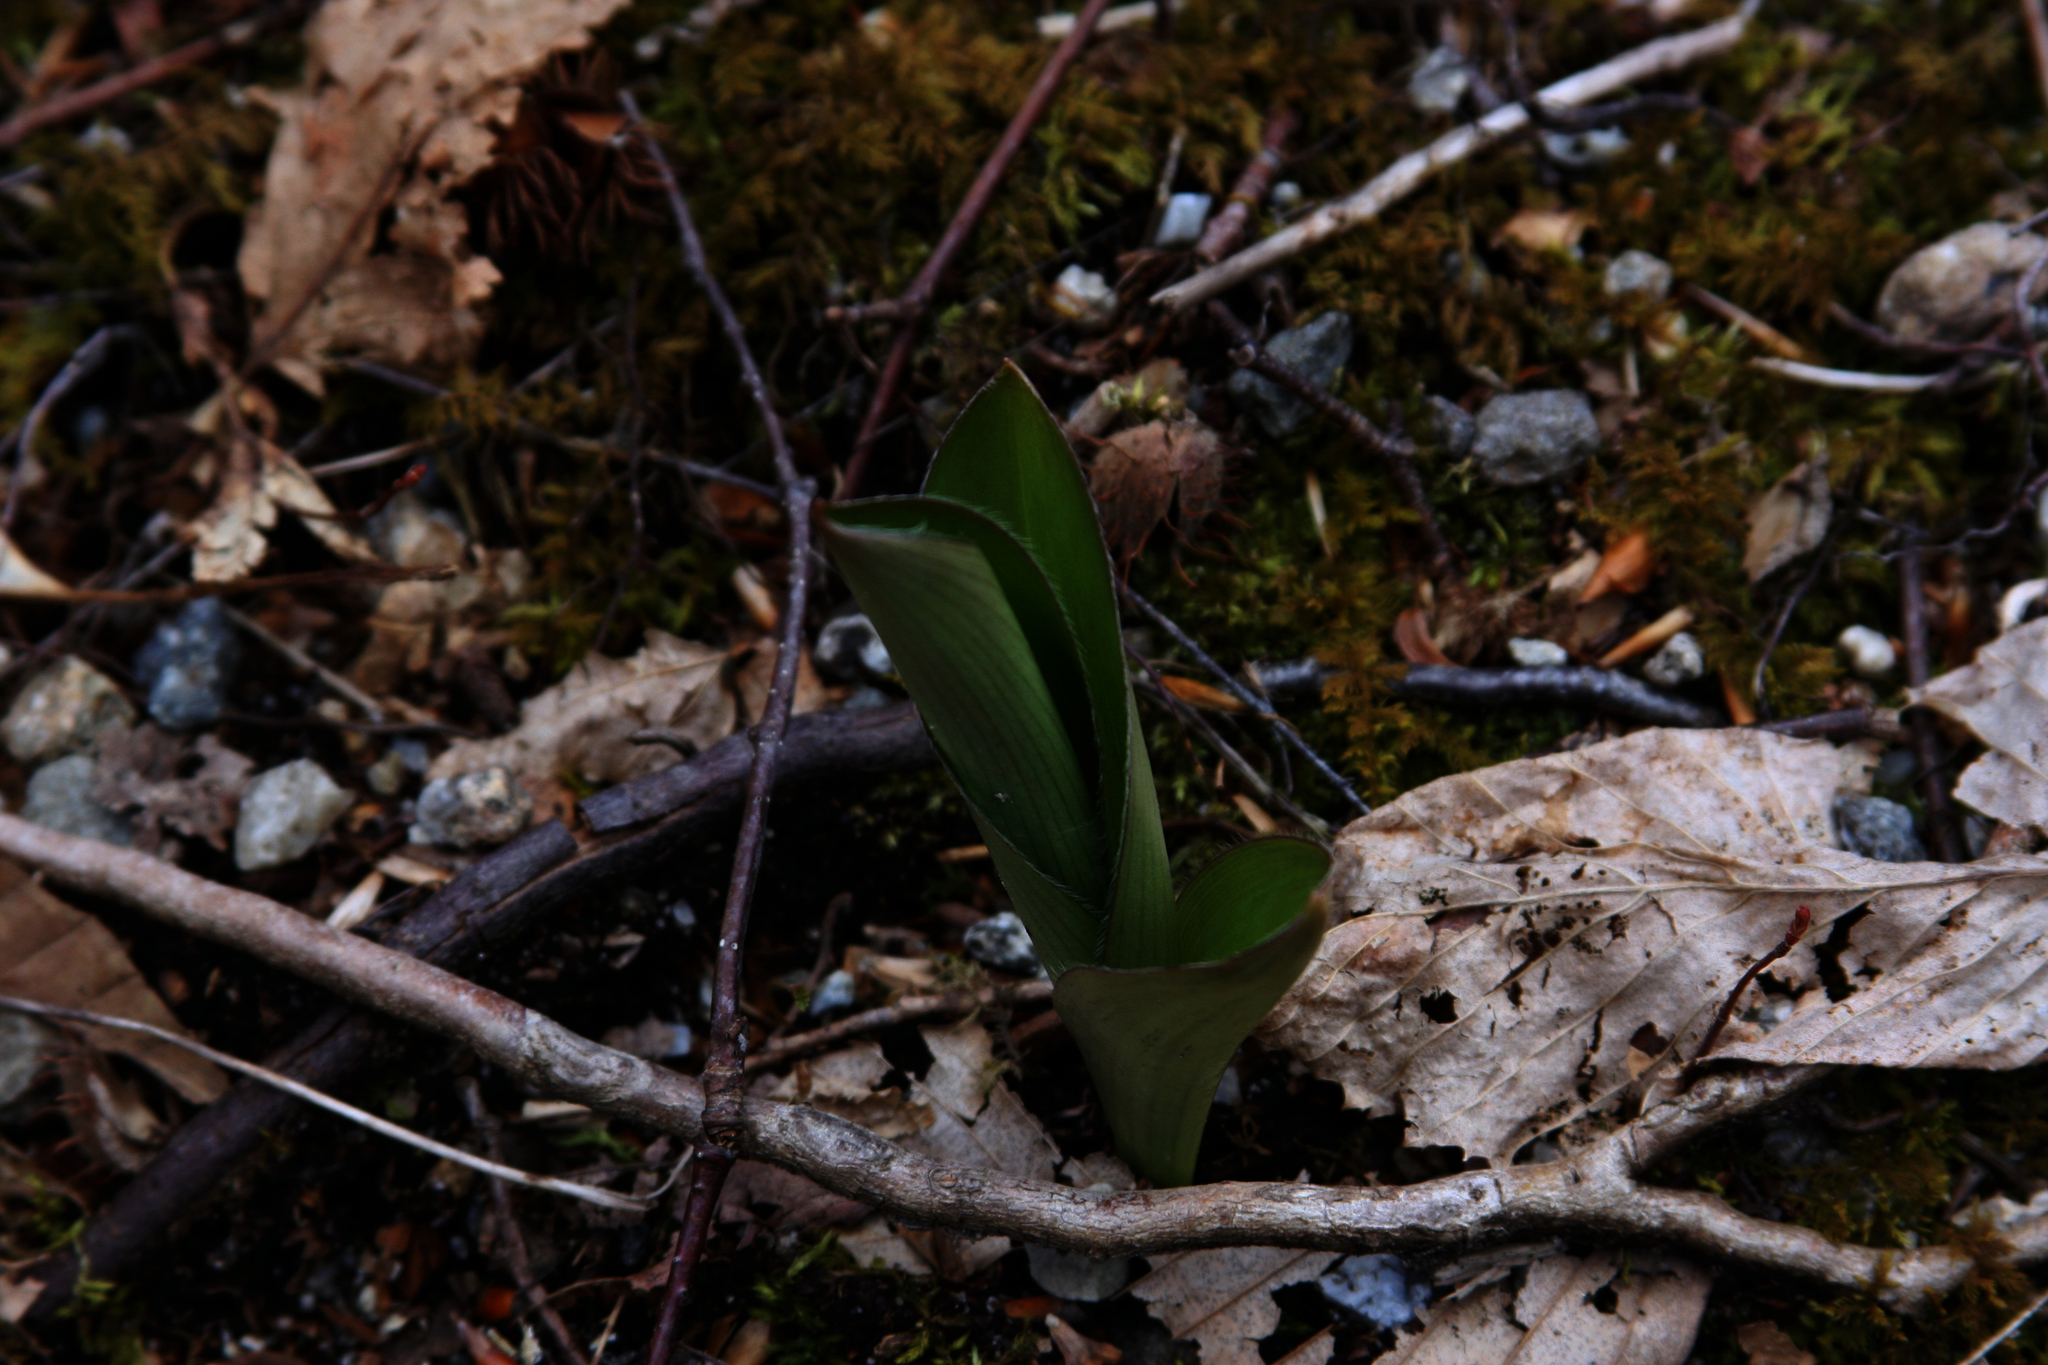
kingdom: Plantae
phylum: Tracheophyta
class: Liliopsida
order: Liliales
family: Liliaceae
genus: Clintonia
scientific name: Clintonia borealis
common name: Yellow clintonia
